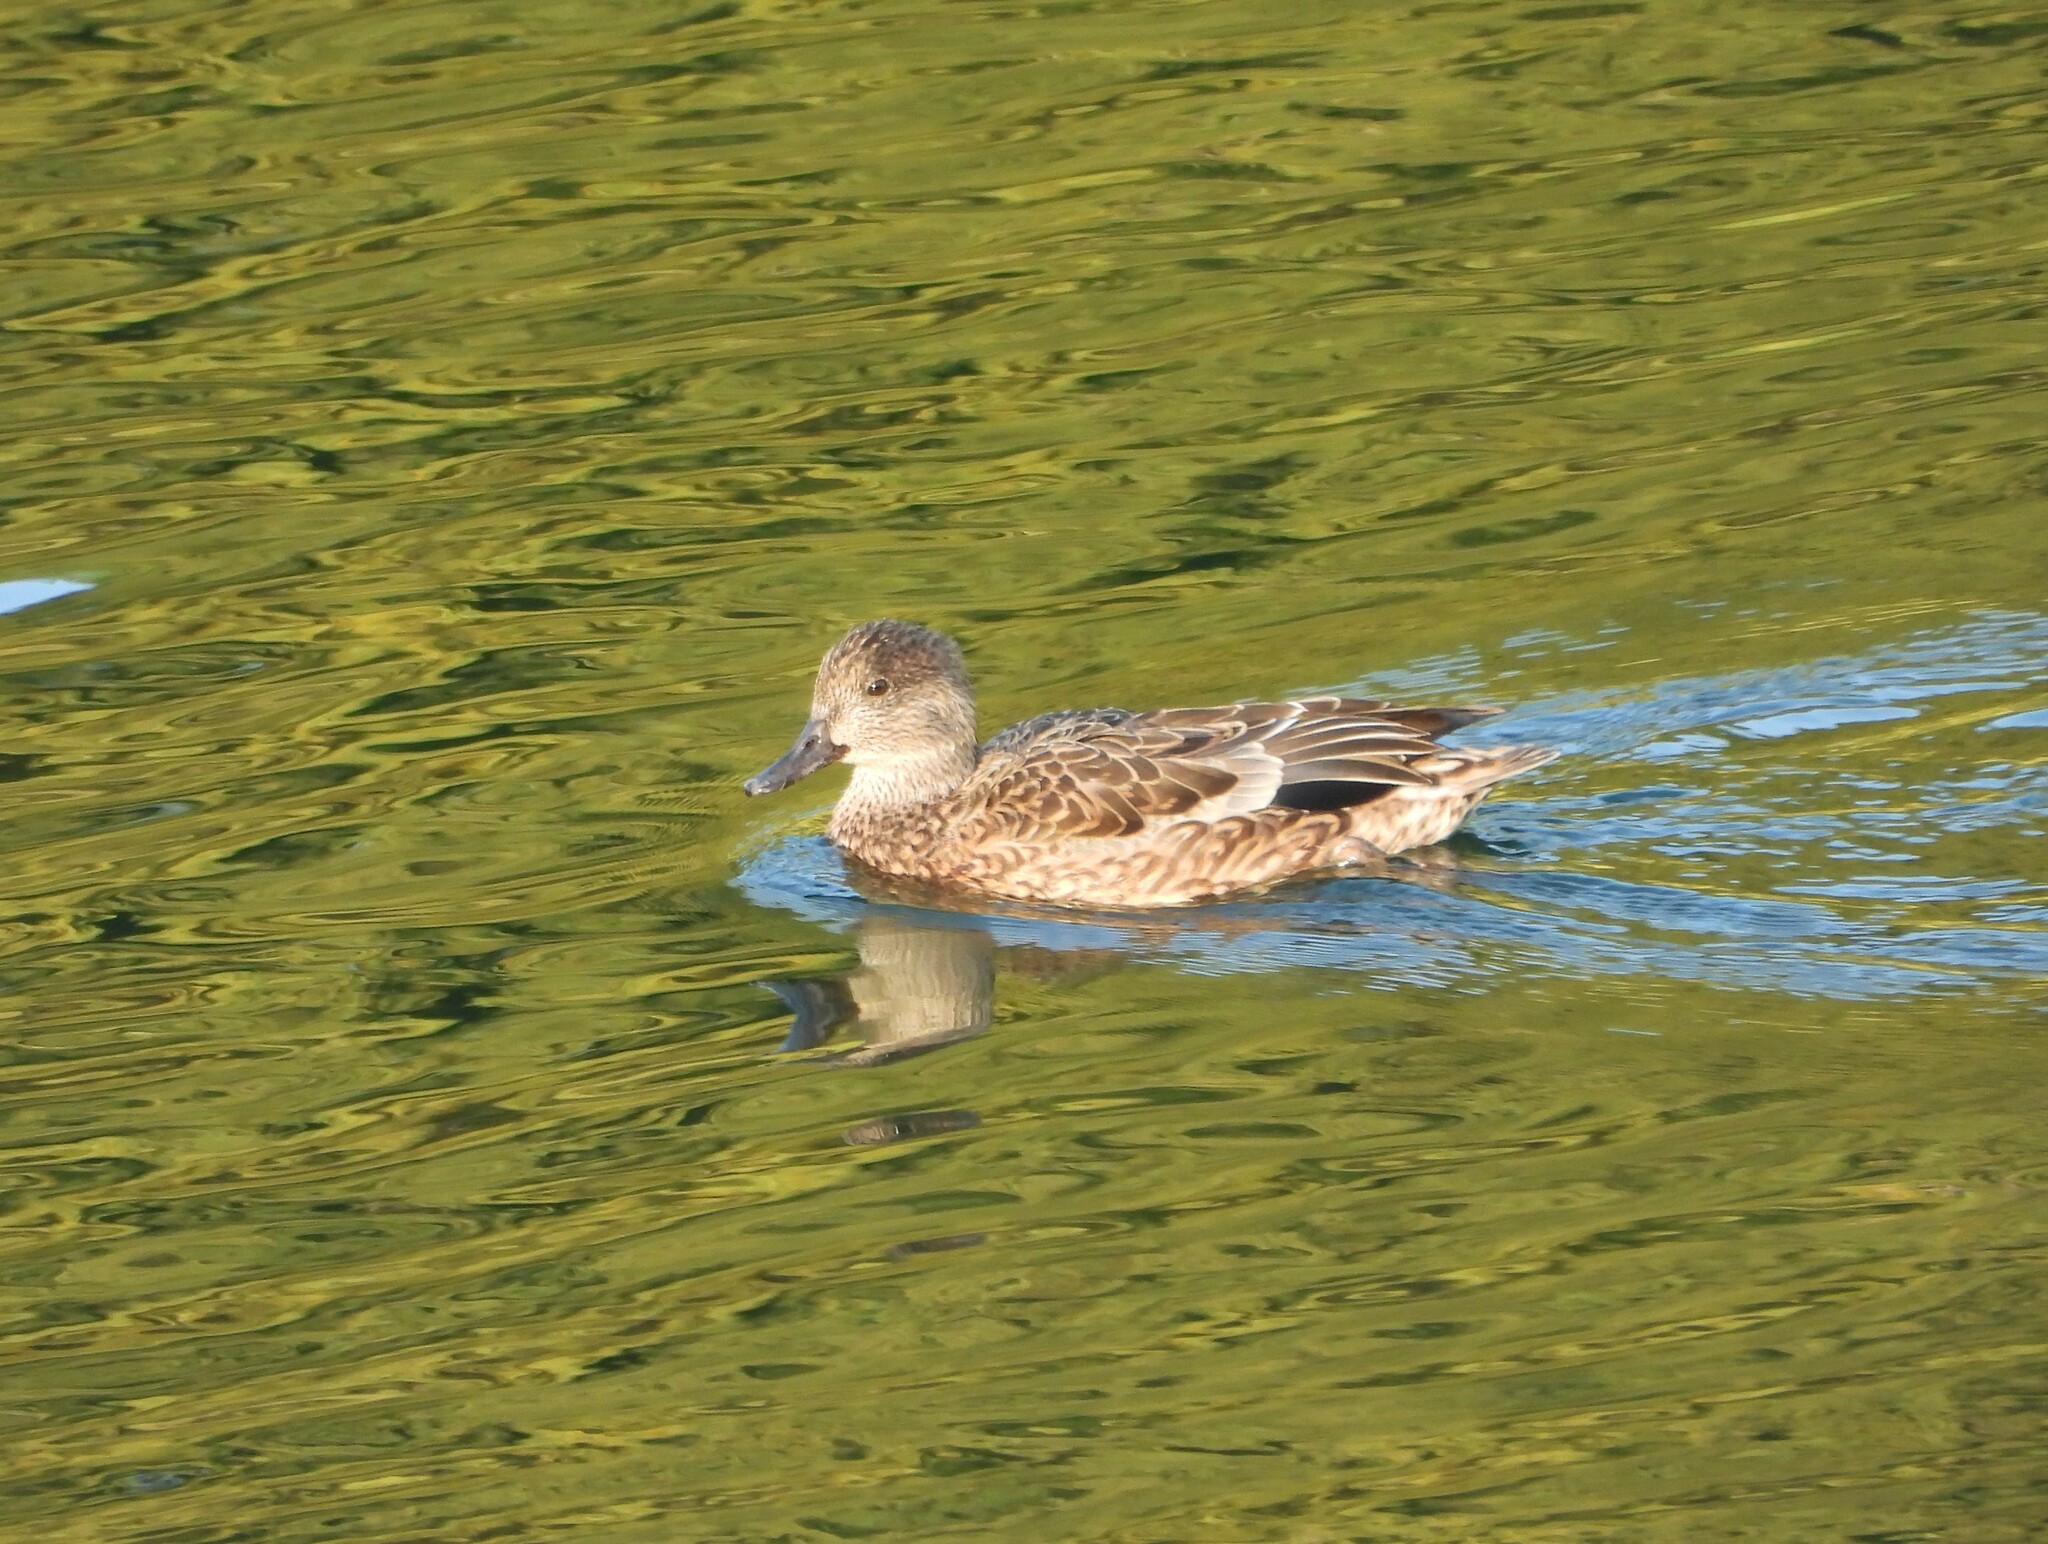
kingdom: Animalia
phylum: Chordata
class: Aves
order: Anseriformes
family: Anatidae
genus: Mareca
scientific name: Mareca falcata
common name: Falcated duck
